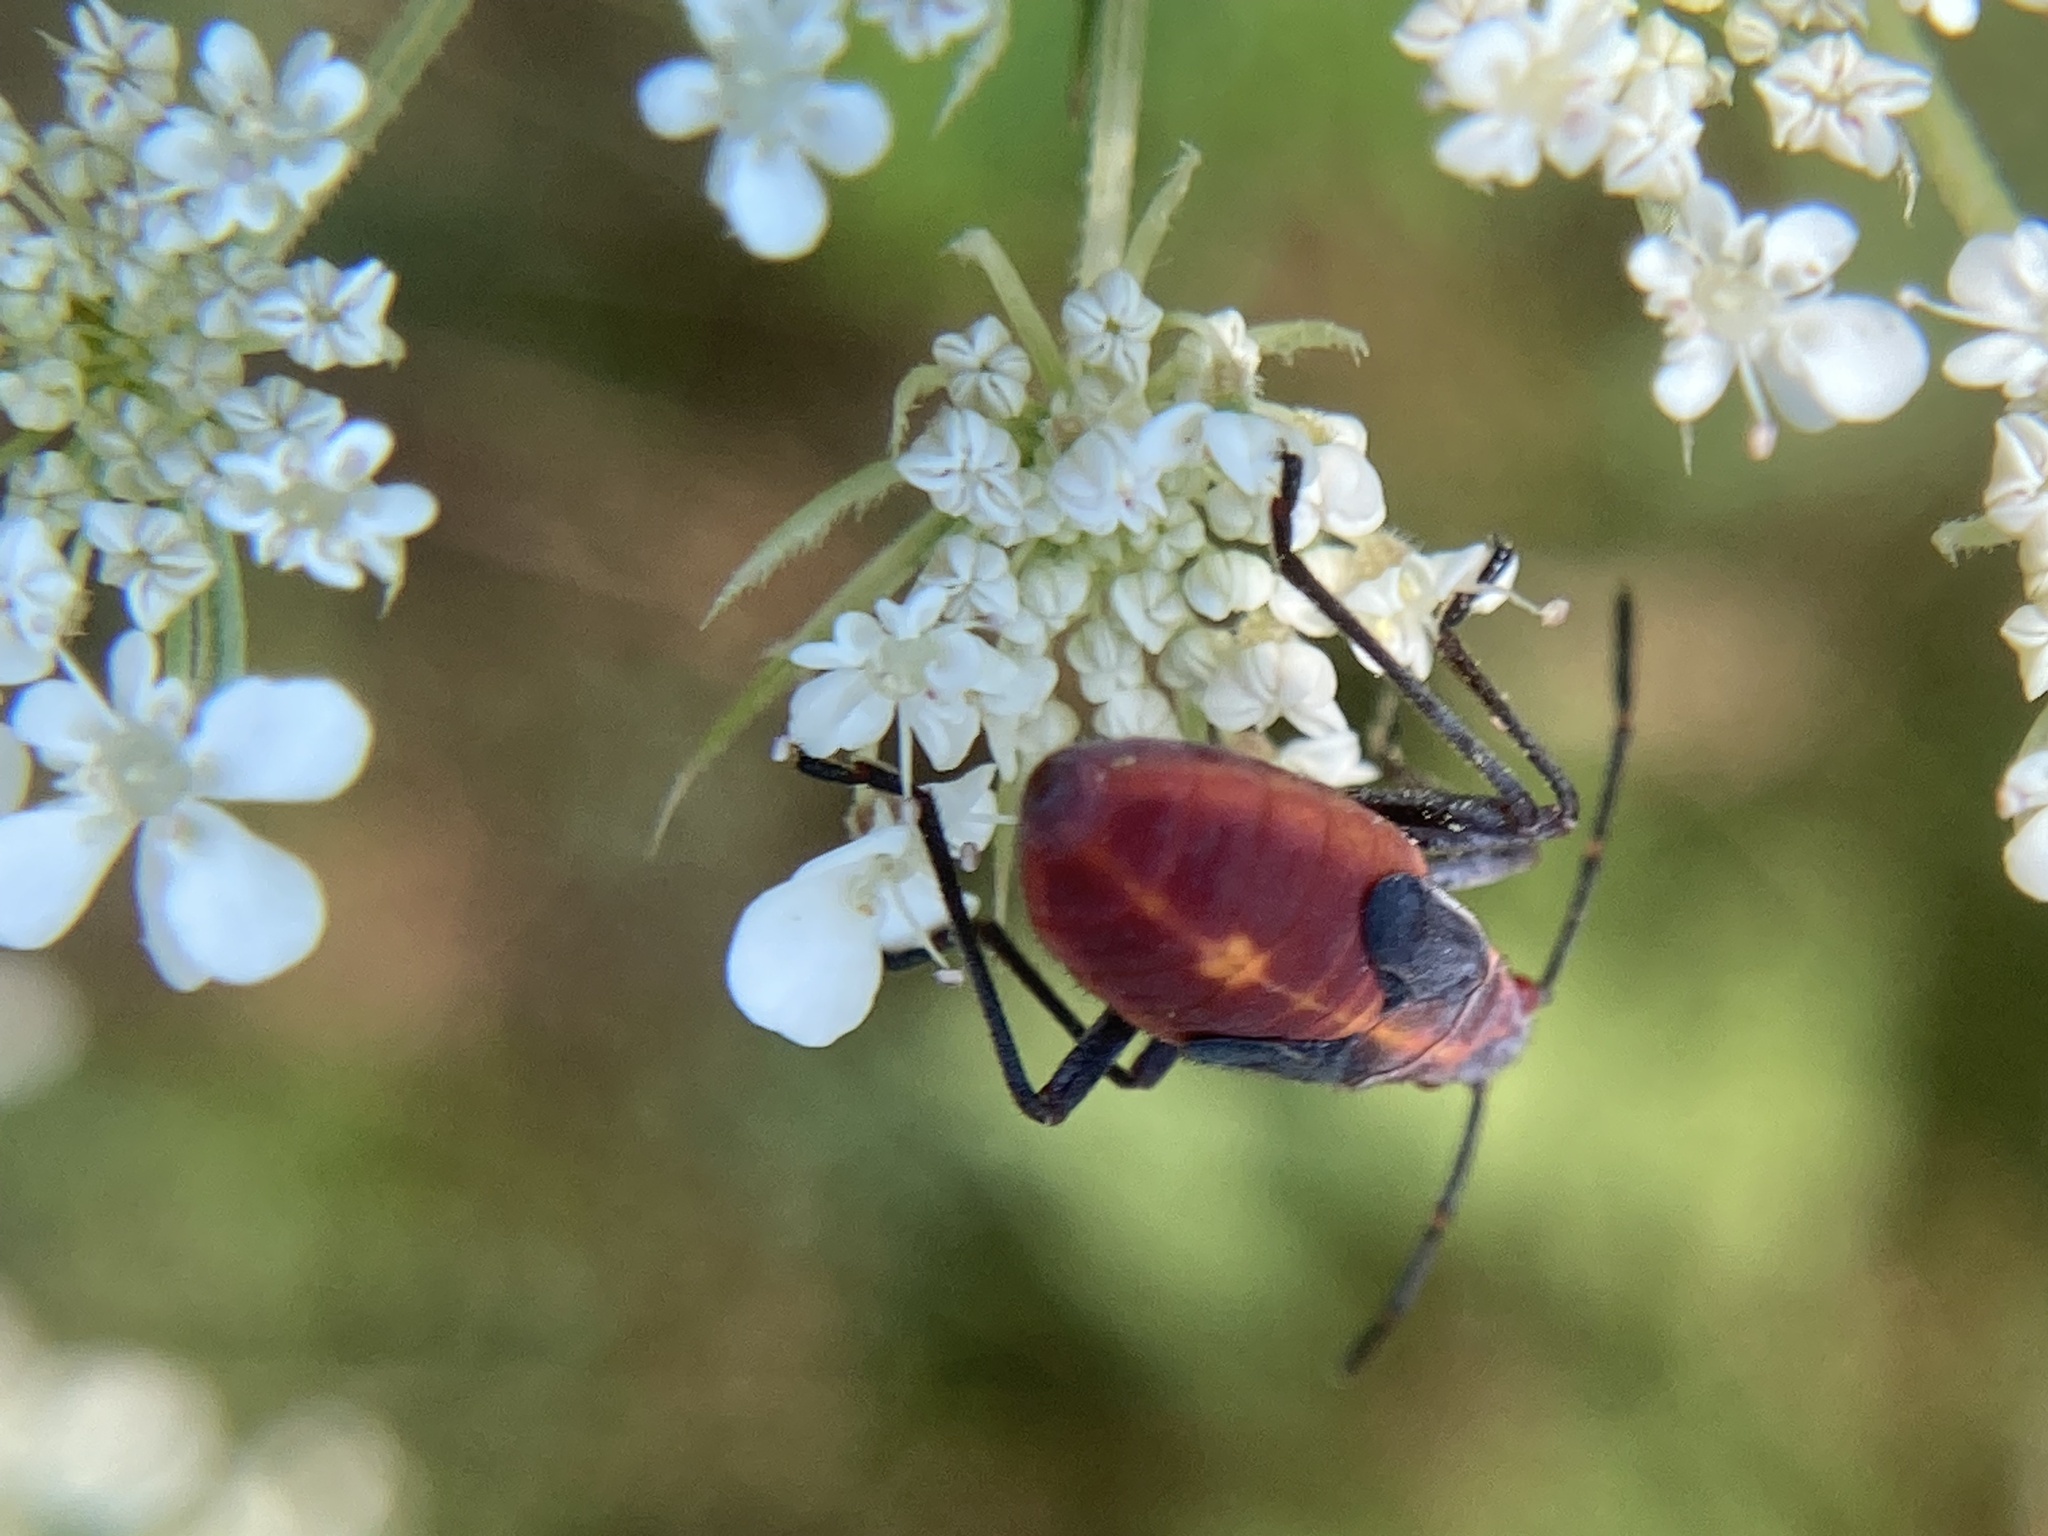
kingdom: Animalia
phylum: Arthropoda
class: Insecta
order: Hemiptera
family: Rhopalidae
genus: Boisea
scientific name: Boisea trivittata
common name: Boxelder bug
